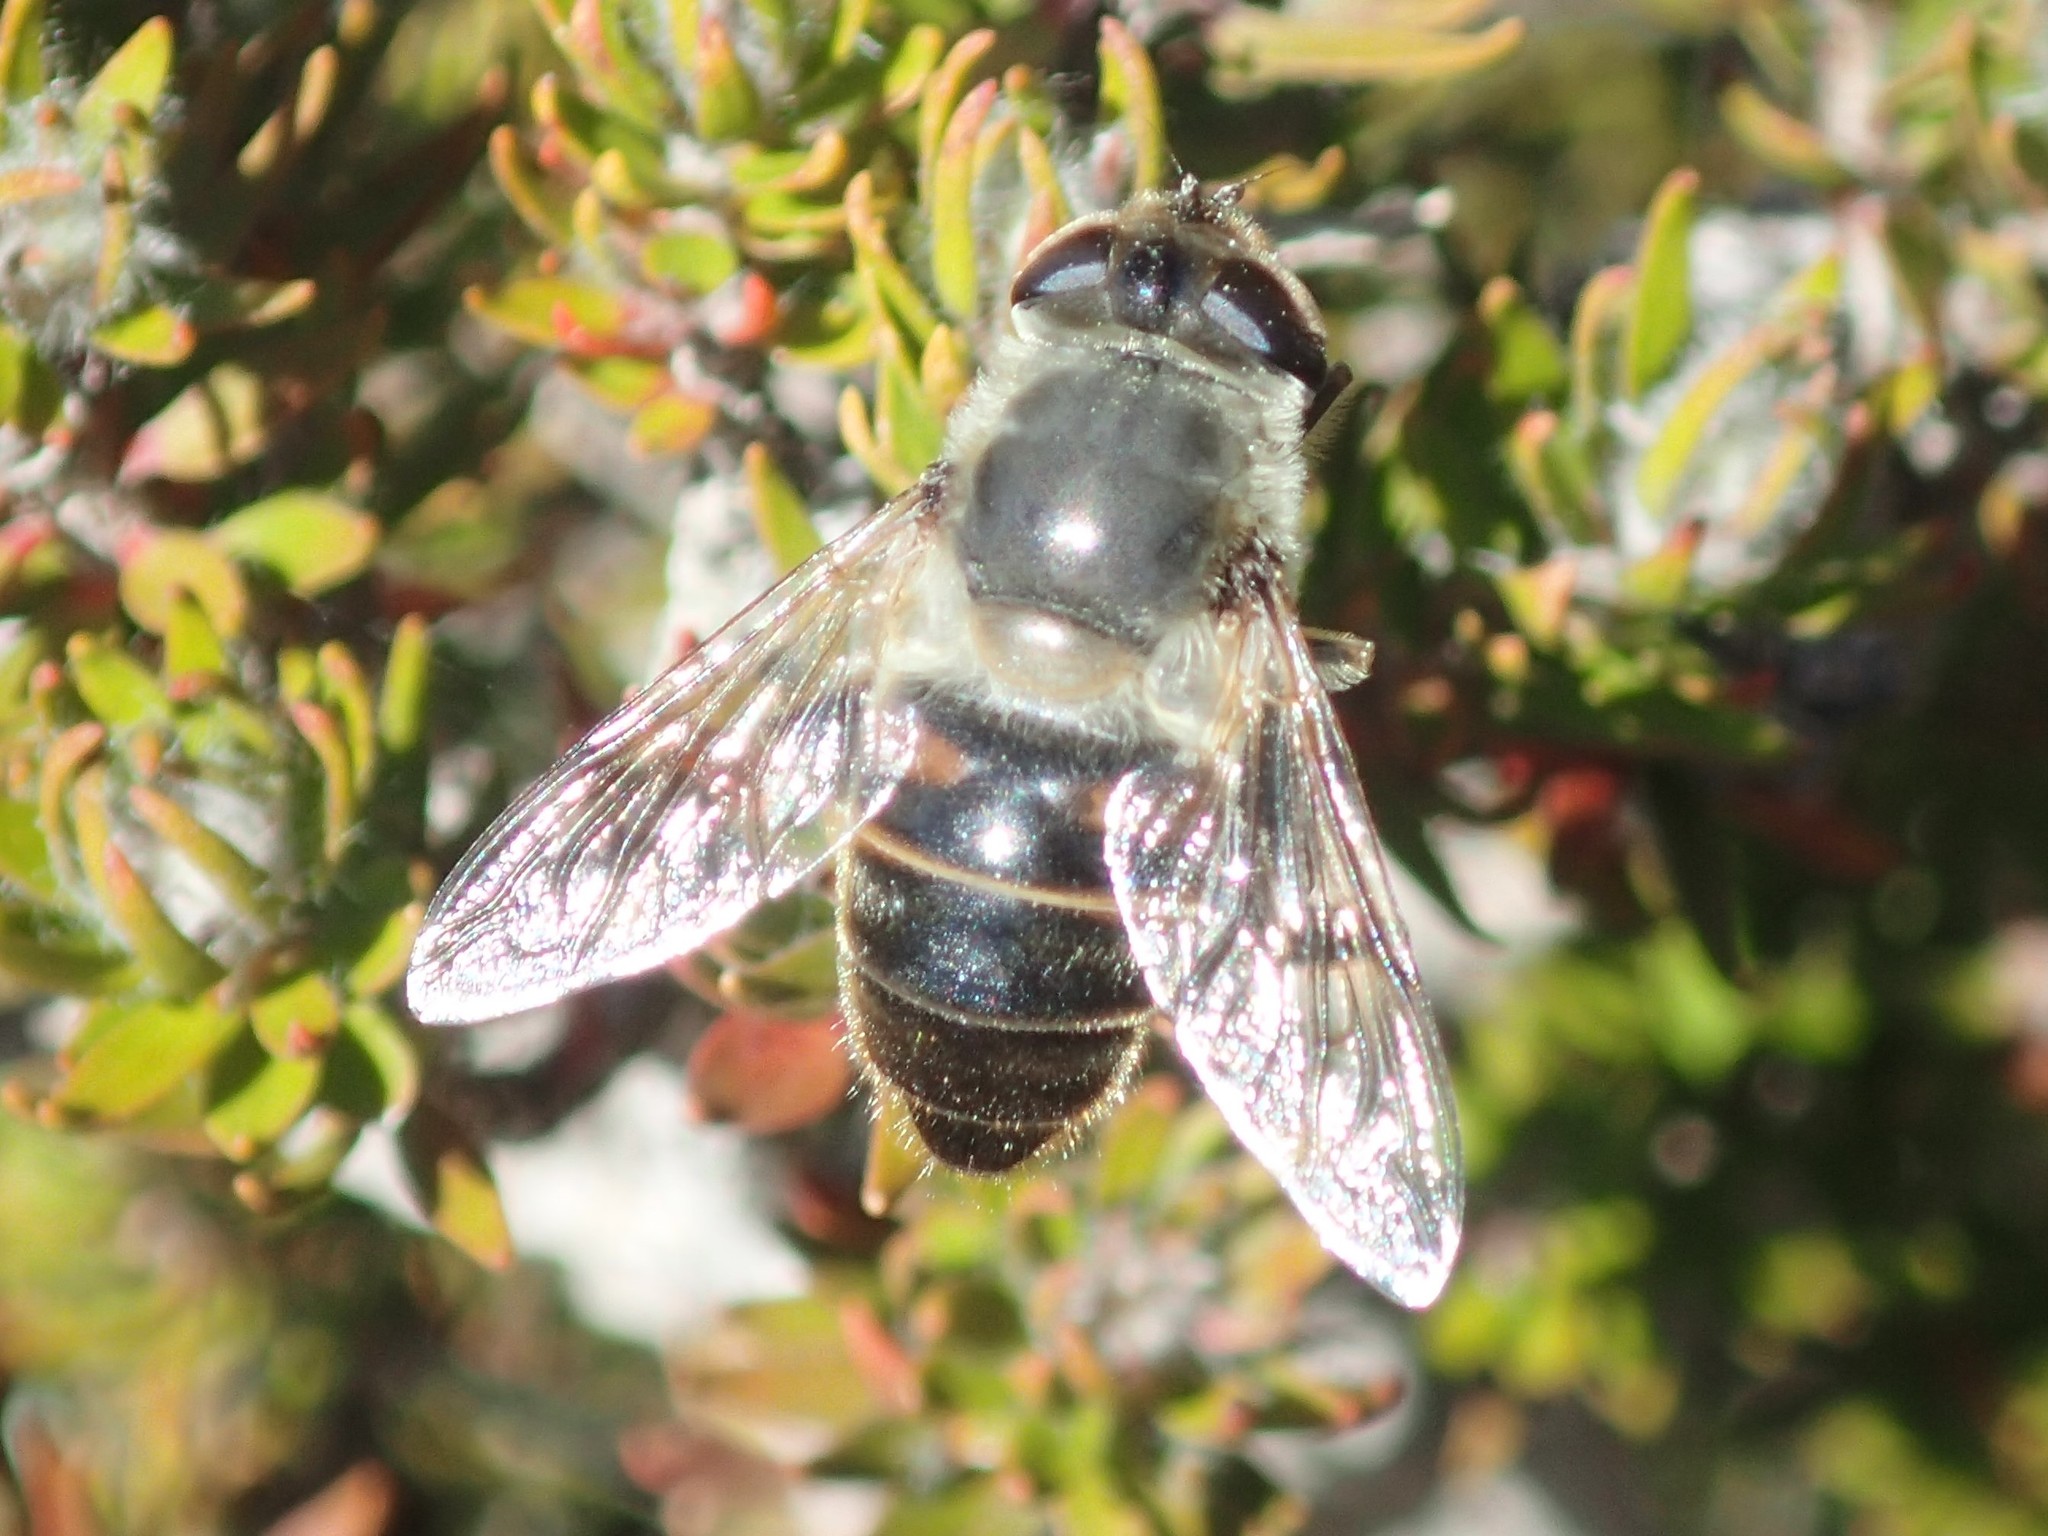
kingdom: Animalia
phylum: Arthropoda
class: Insecta
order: Diptera
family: Syrphidae
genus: Eristalis
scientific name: Eristalis tenax
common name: Drone fly
